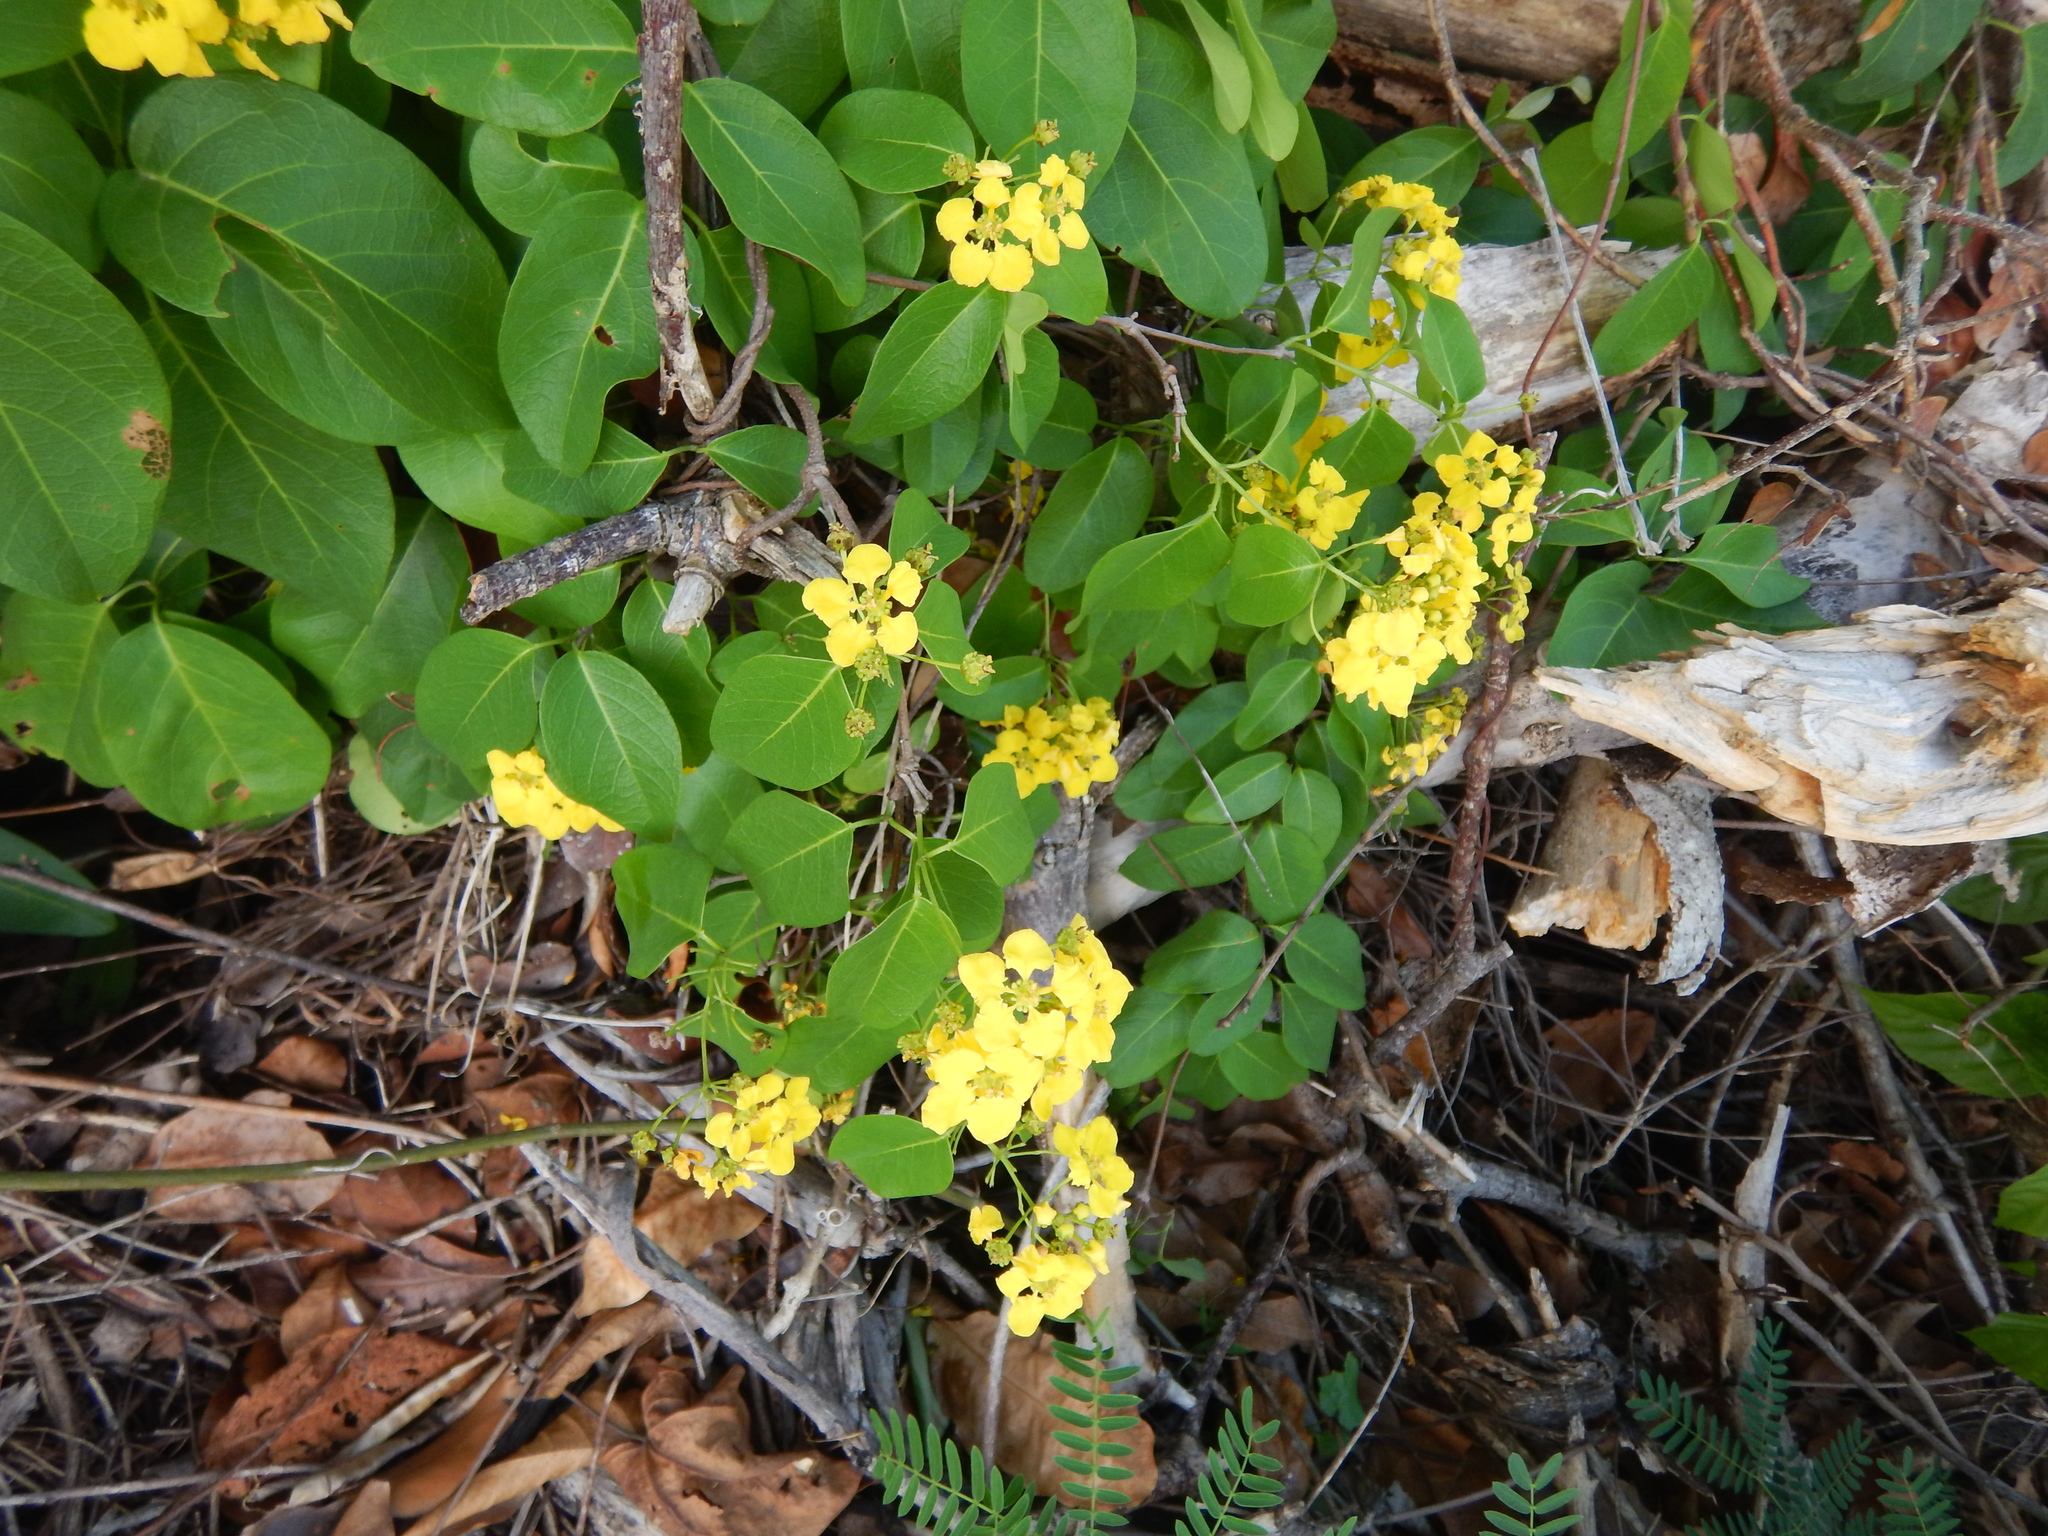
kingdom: Plantae
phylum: Tracheophyta
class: Magnoliopsida
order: Malpighiales
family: Malpighiaceae
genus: Stigmaphyllon
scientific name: Stigmaphyllon emarginatum
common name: Monarch amazonvine
